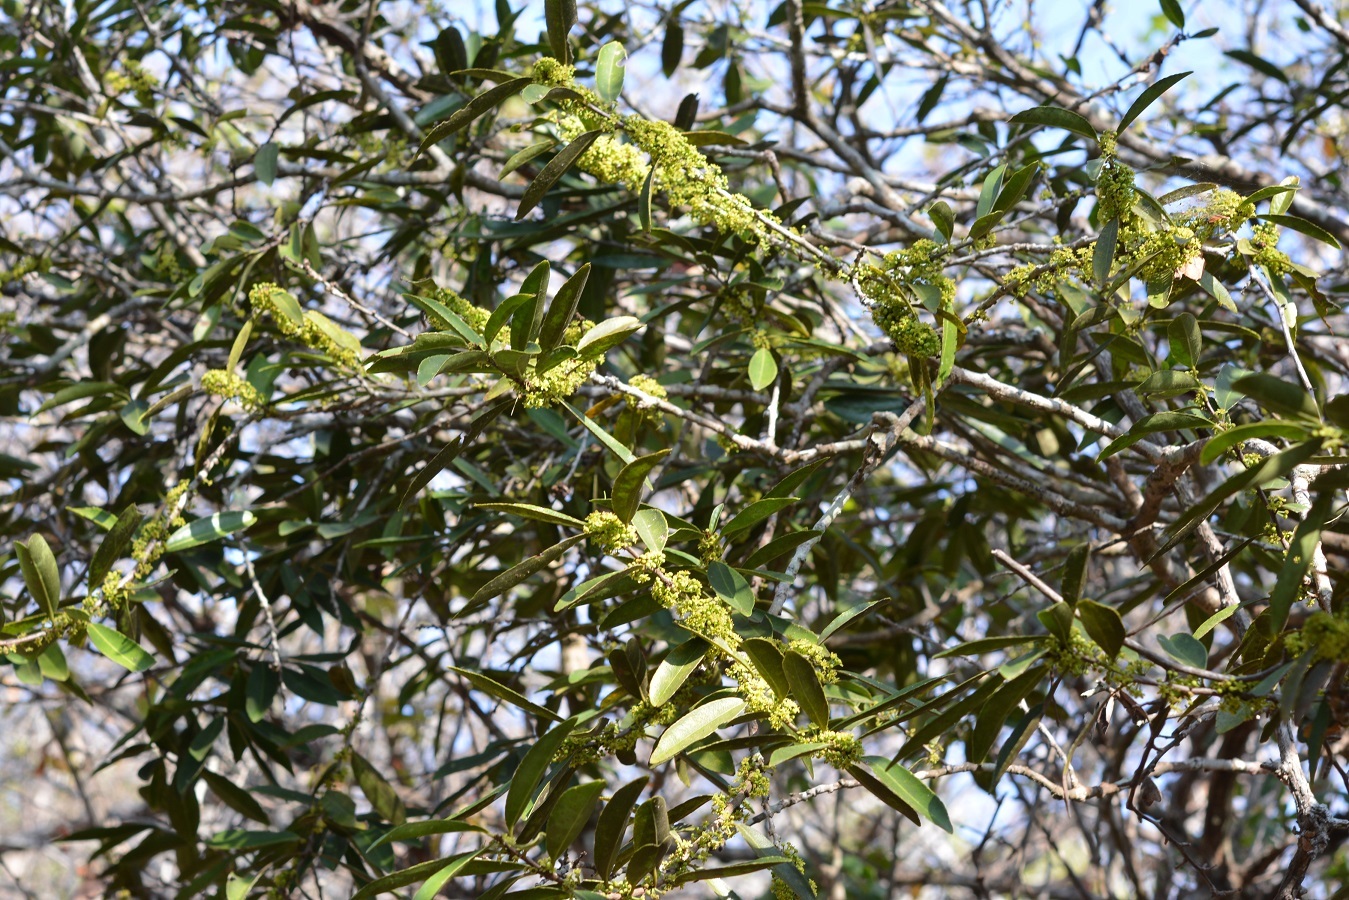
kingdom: Plantae
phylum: Tracheophyta
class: Magnoliopsida
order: Celastrales
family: Celastraceae
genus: Monteverdia
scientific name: Monteverdia stipitata
